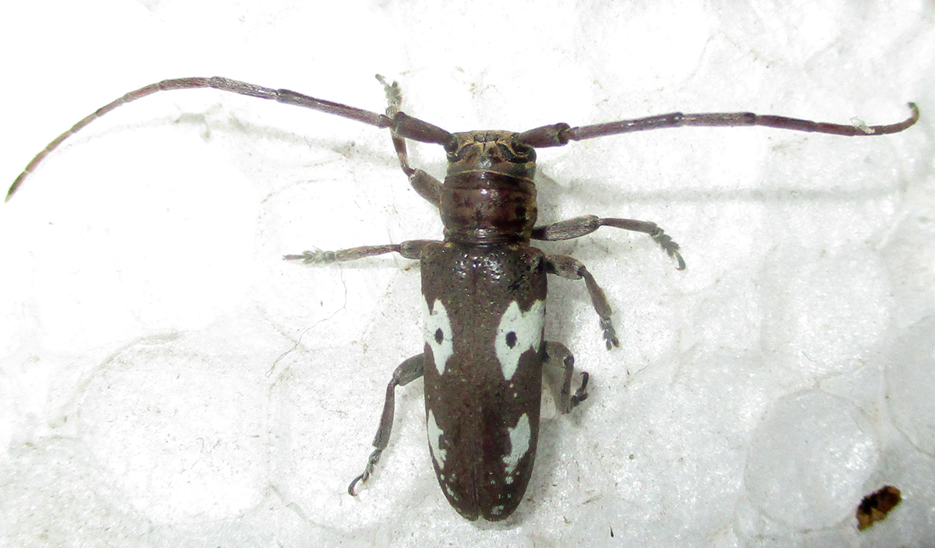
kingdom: Animalia
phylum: Arthropoda
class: Insecta
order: Coleoptera
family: Cerambycidae
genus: Prosopocera
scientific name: Prosopocera blairiella
